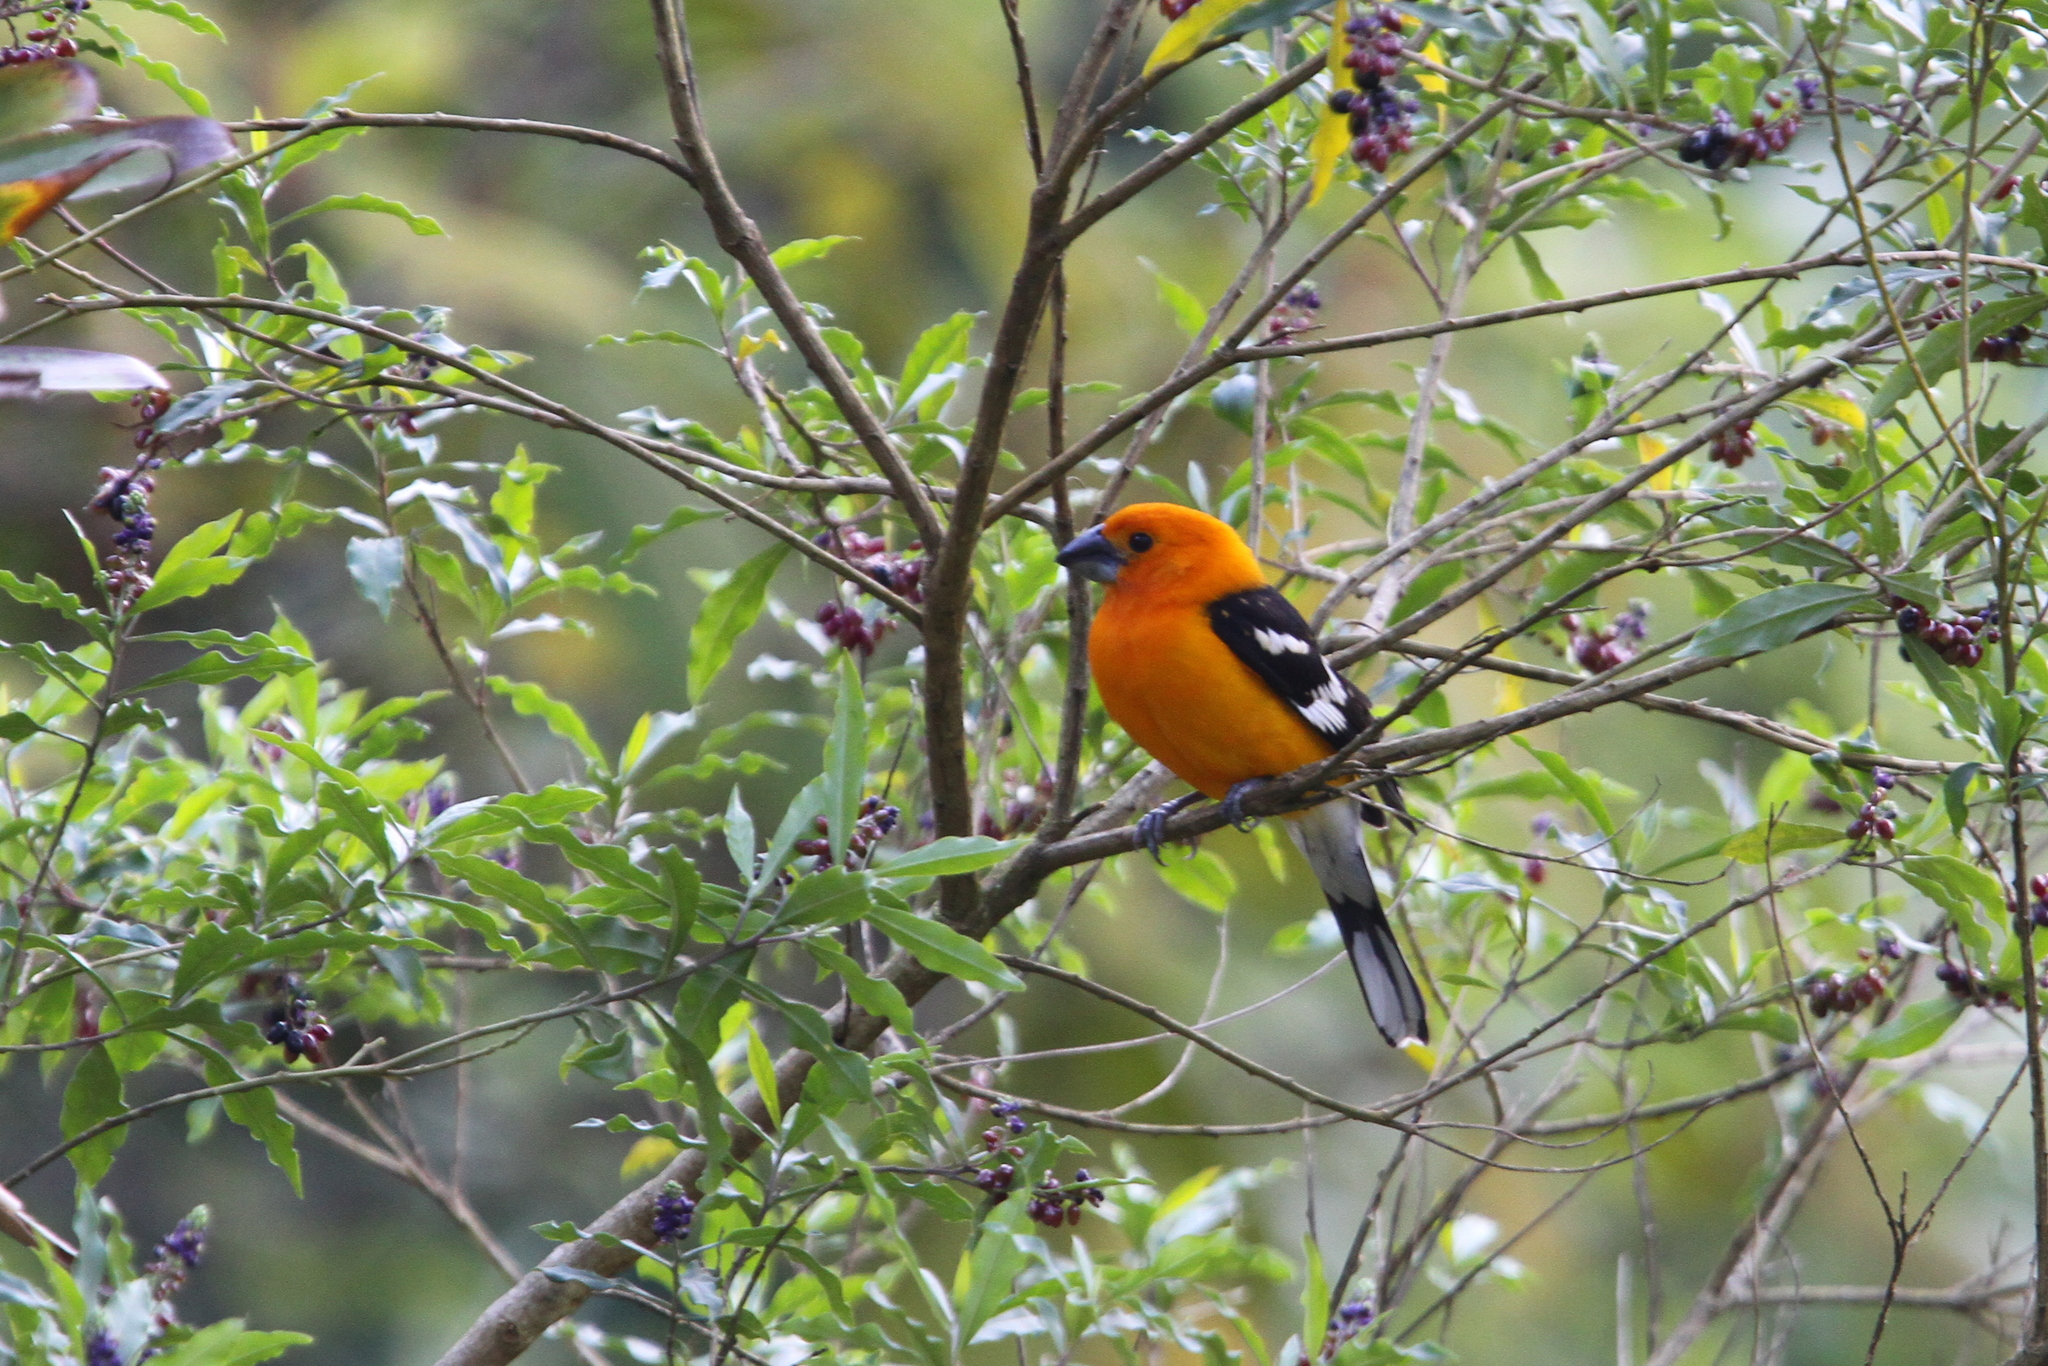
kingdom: Animalia
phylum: Chordata
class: Aves
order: Passeriformes
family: Cardinalidae
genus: Pheucticus
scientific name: Pheucticus chrysopeplus
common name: Yellow grosbeak
